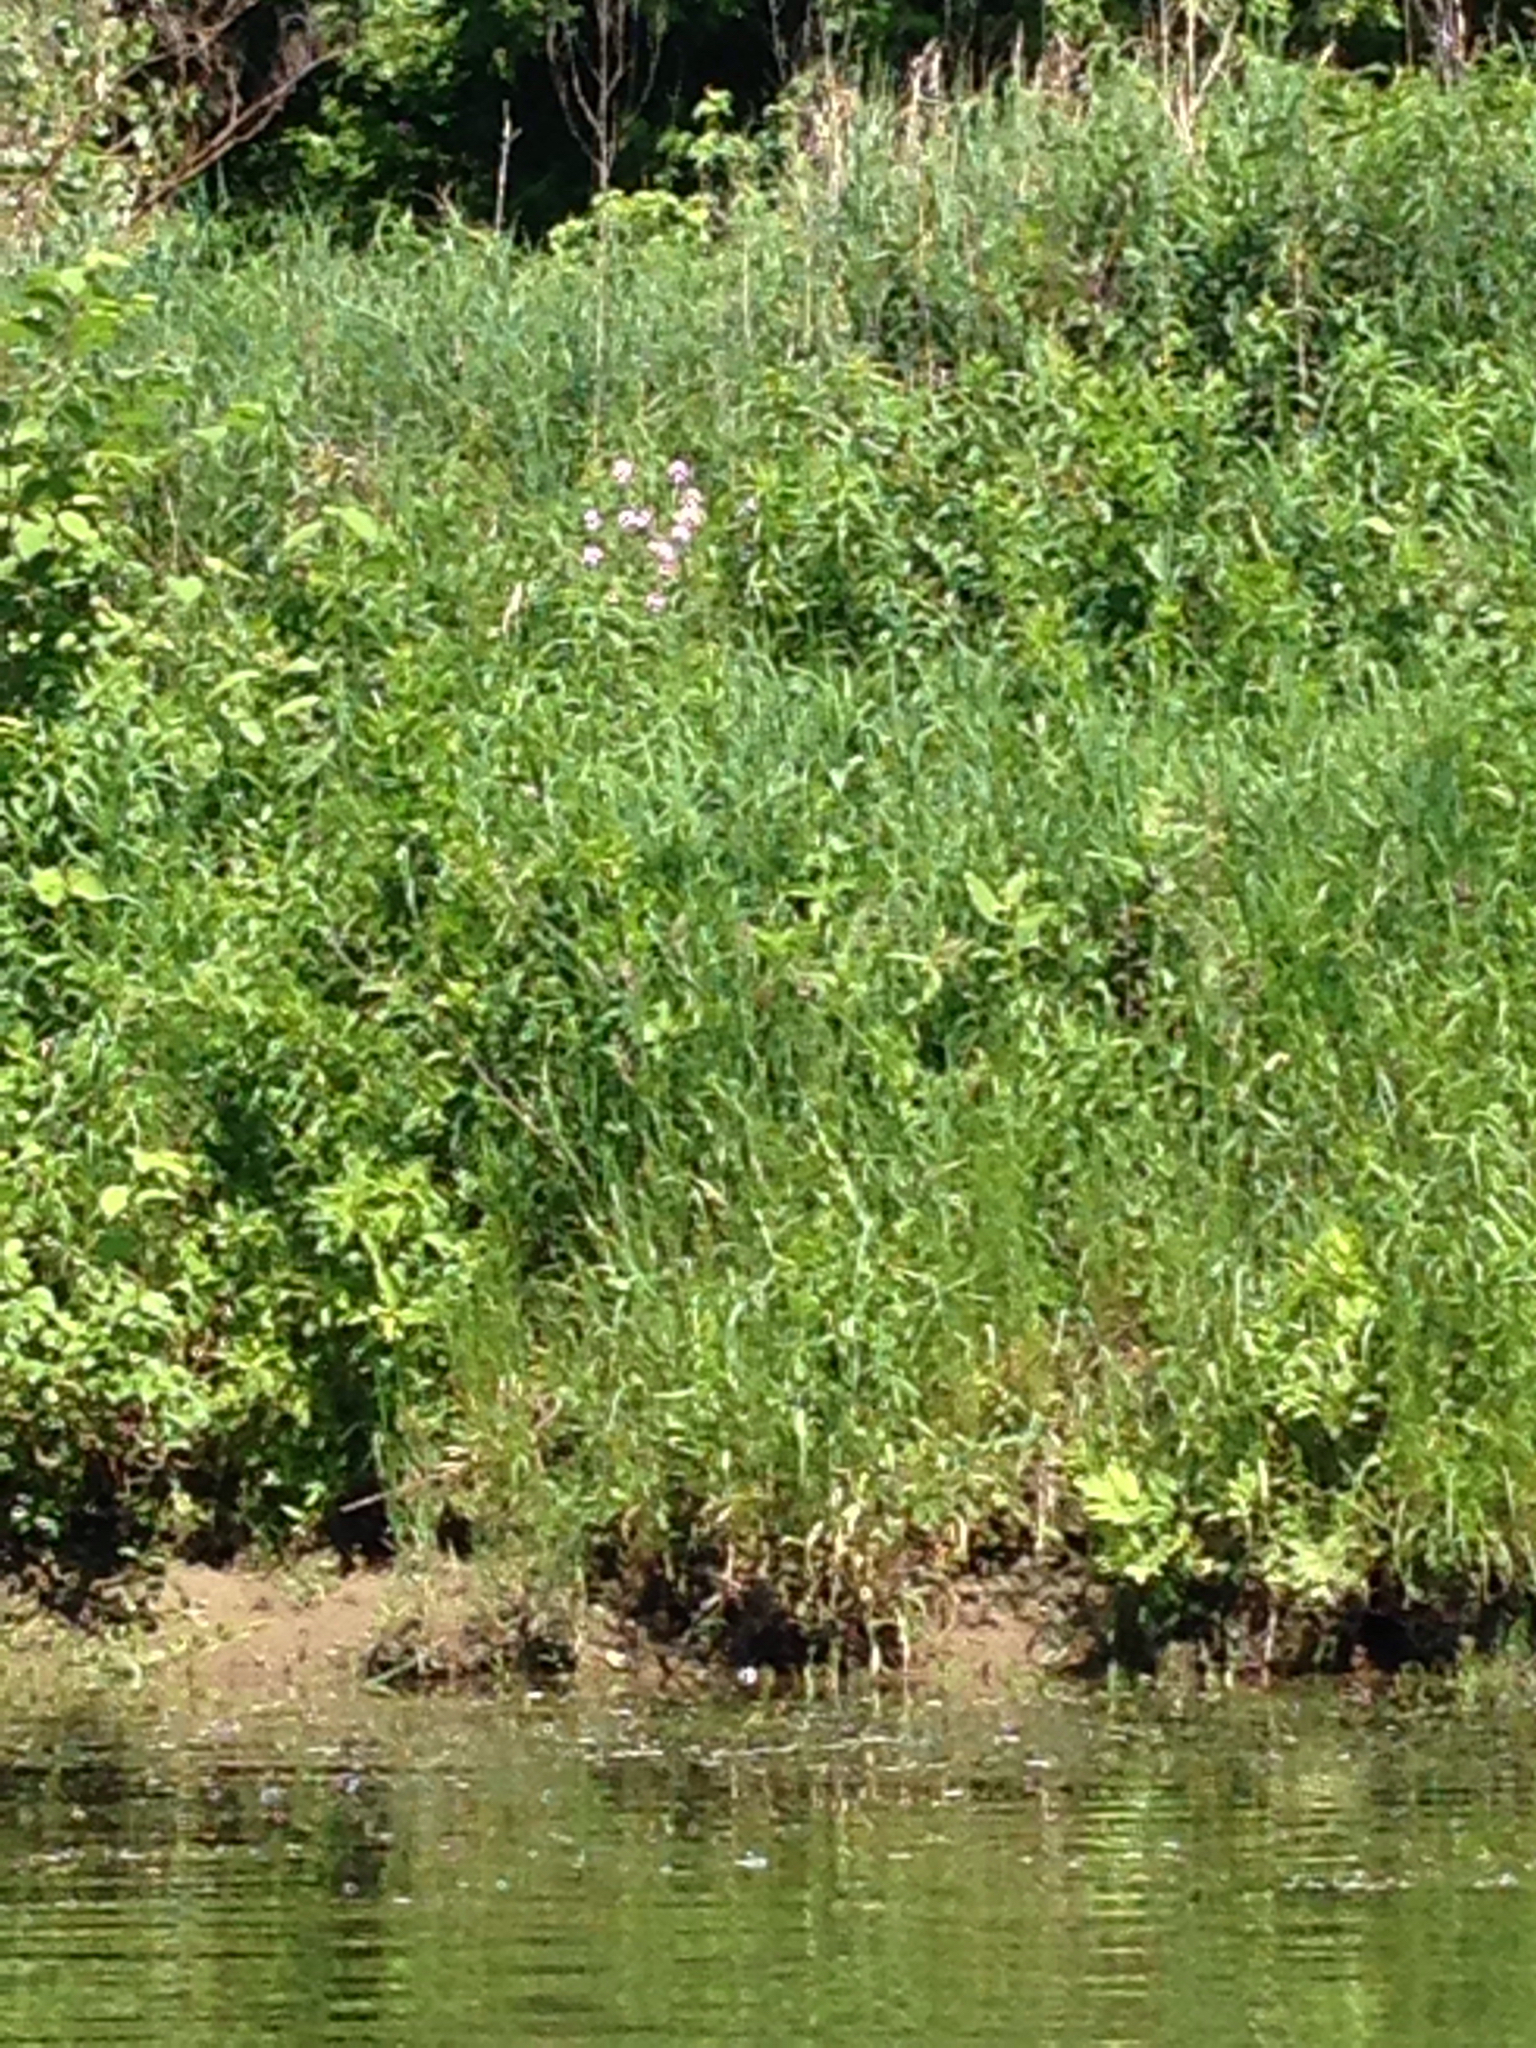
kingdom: Plantae
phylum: Tracheophyta
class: Magnoliopsida
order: Brassicales
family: Brassicaceae
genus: Hesperis
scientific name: Hesperis matronalis
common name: Dame's-violet
